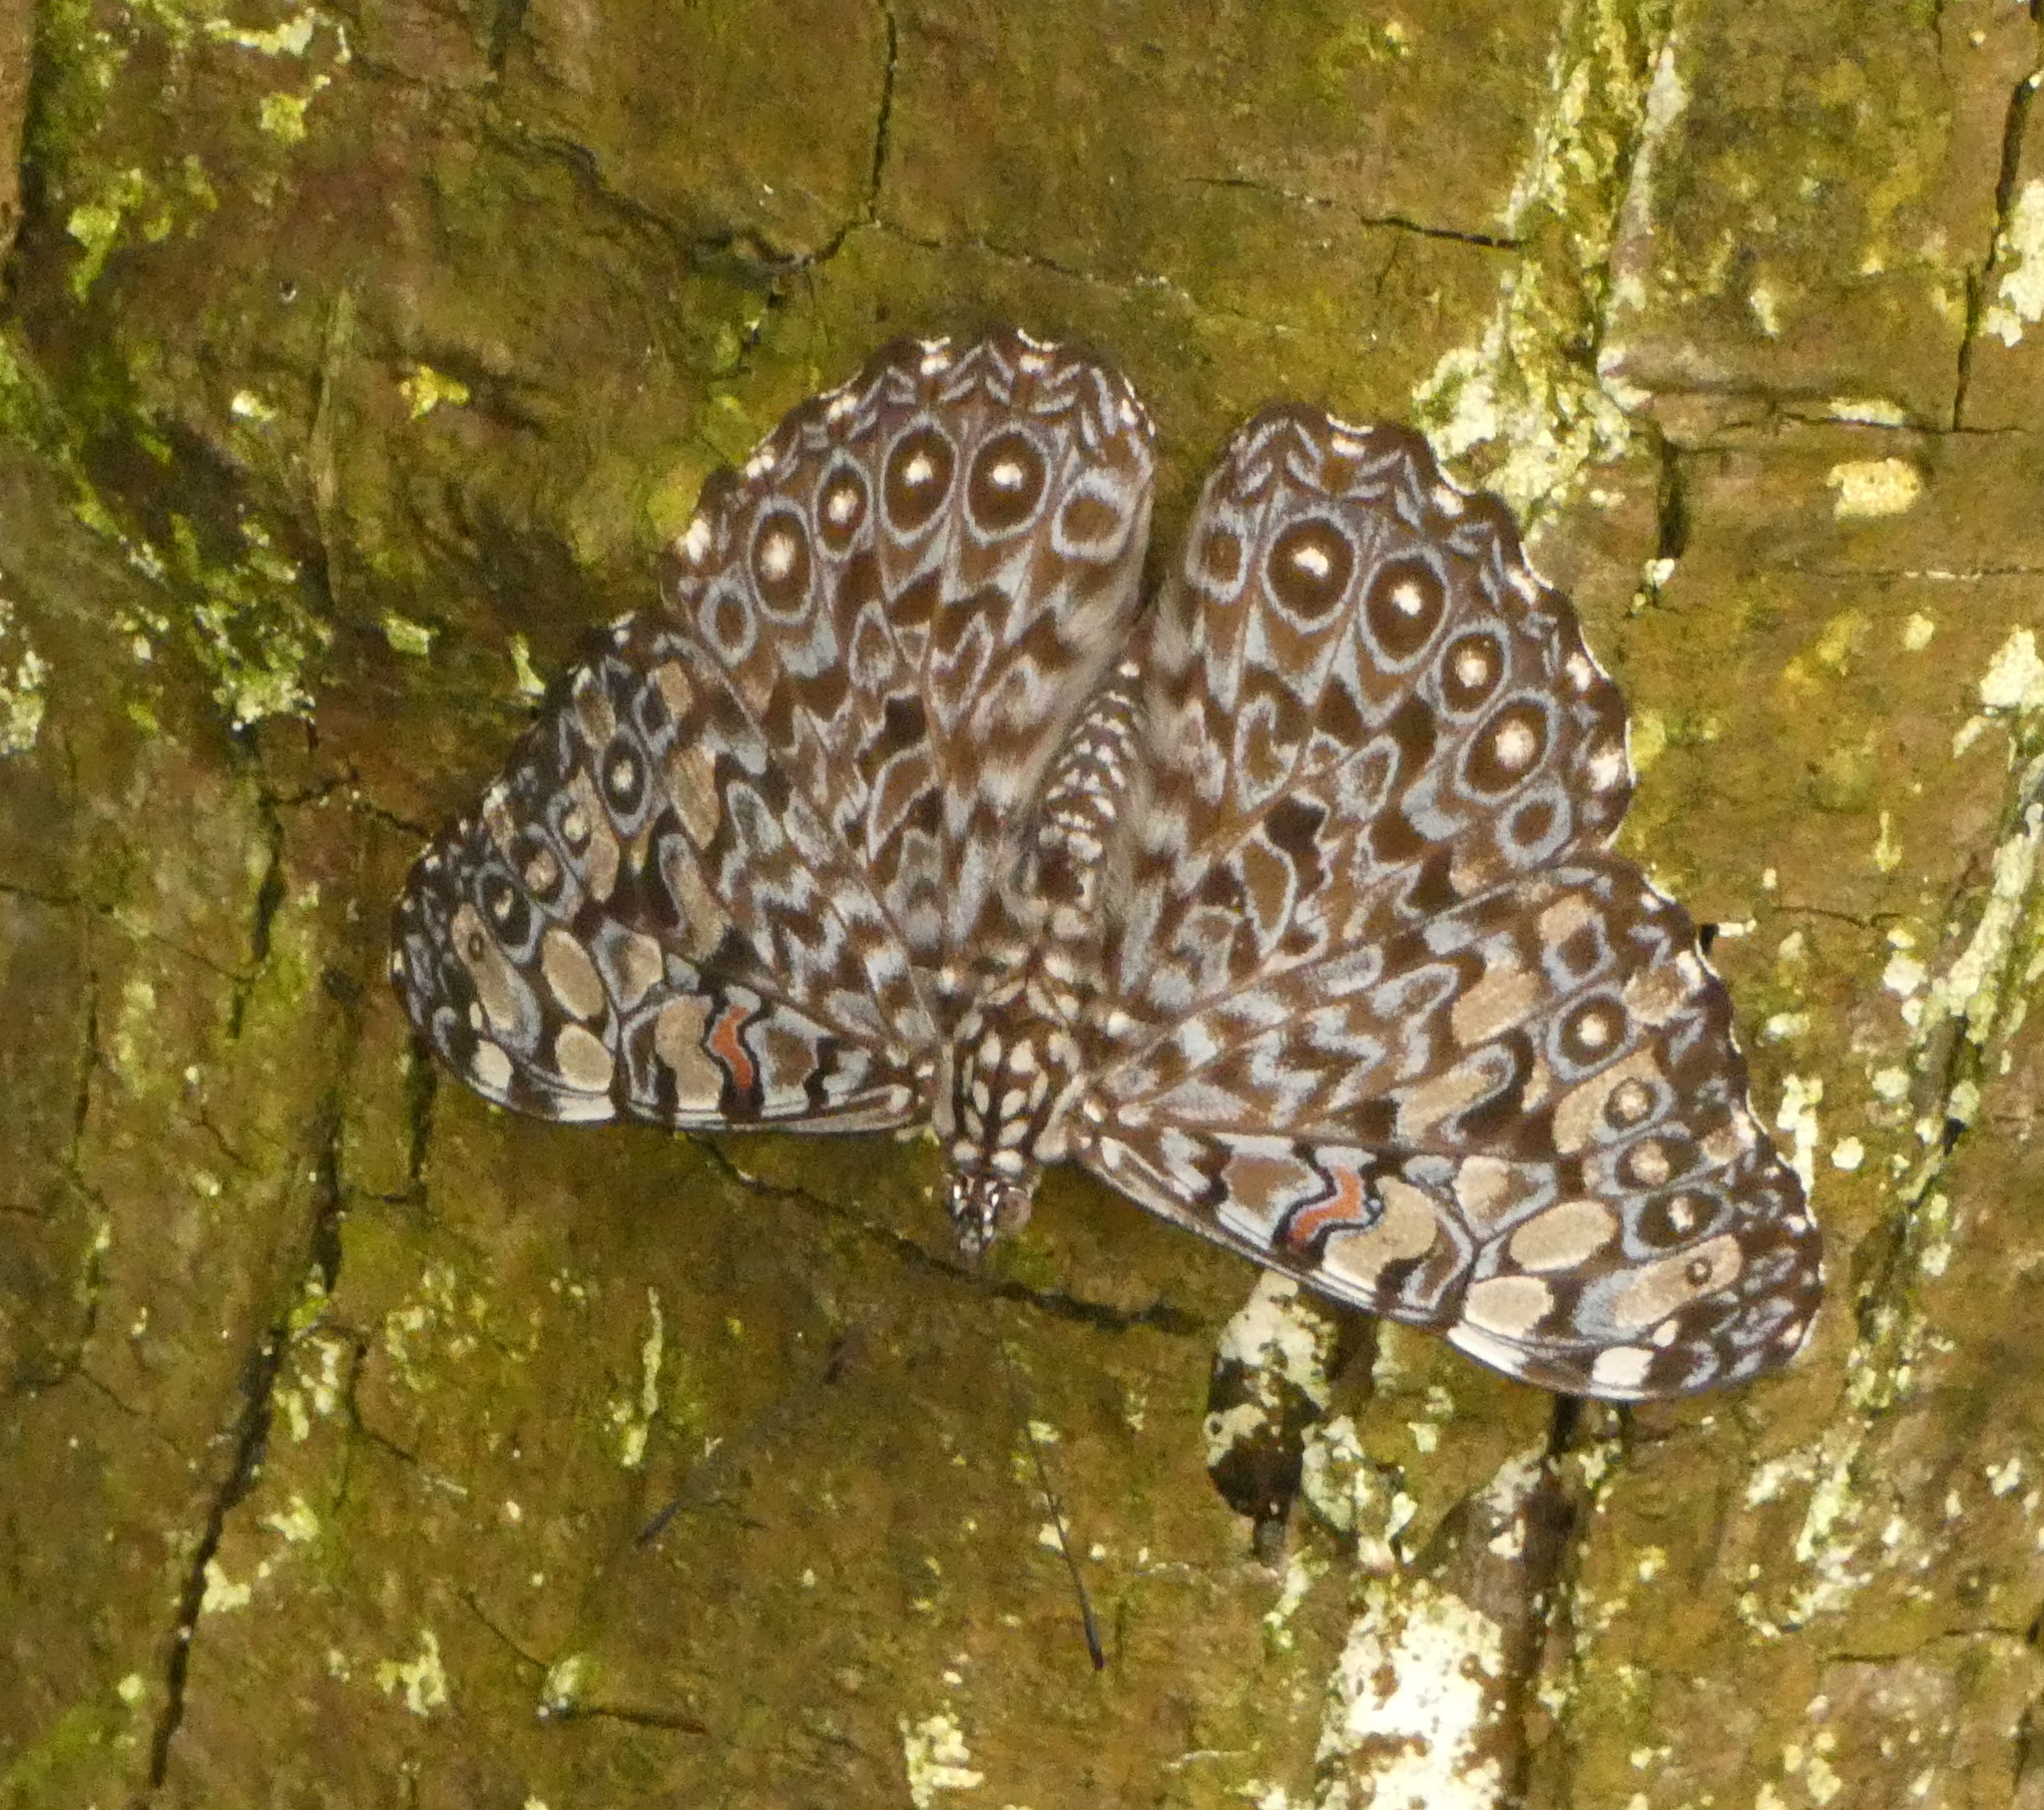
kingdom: Animalia
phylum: Arthropoda
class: Insecta
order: Lepidoptera
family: Nymphalidae
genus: Hamadryas
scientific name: Hamadryas feronia
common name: Variable cracker
